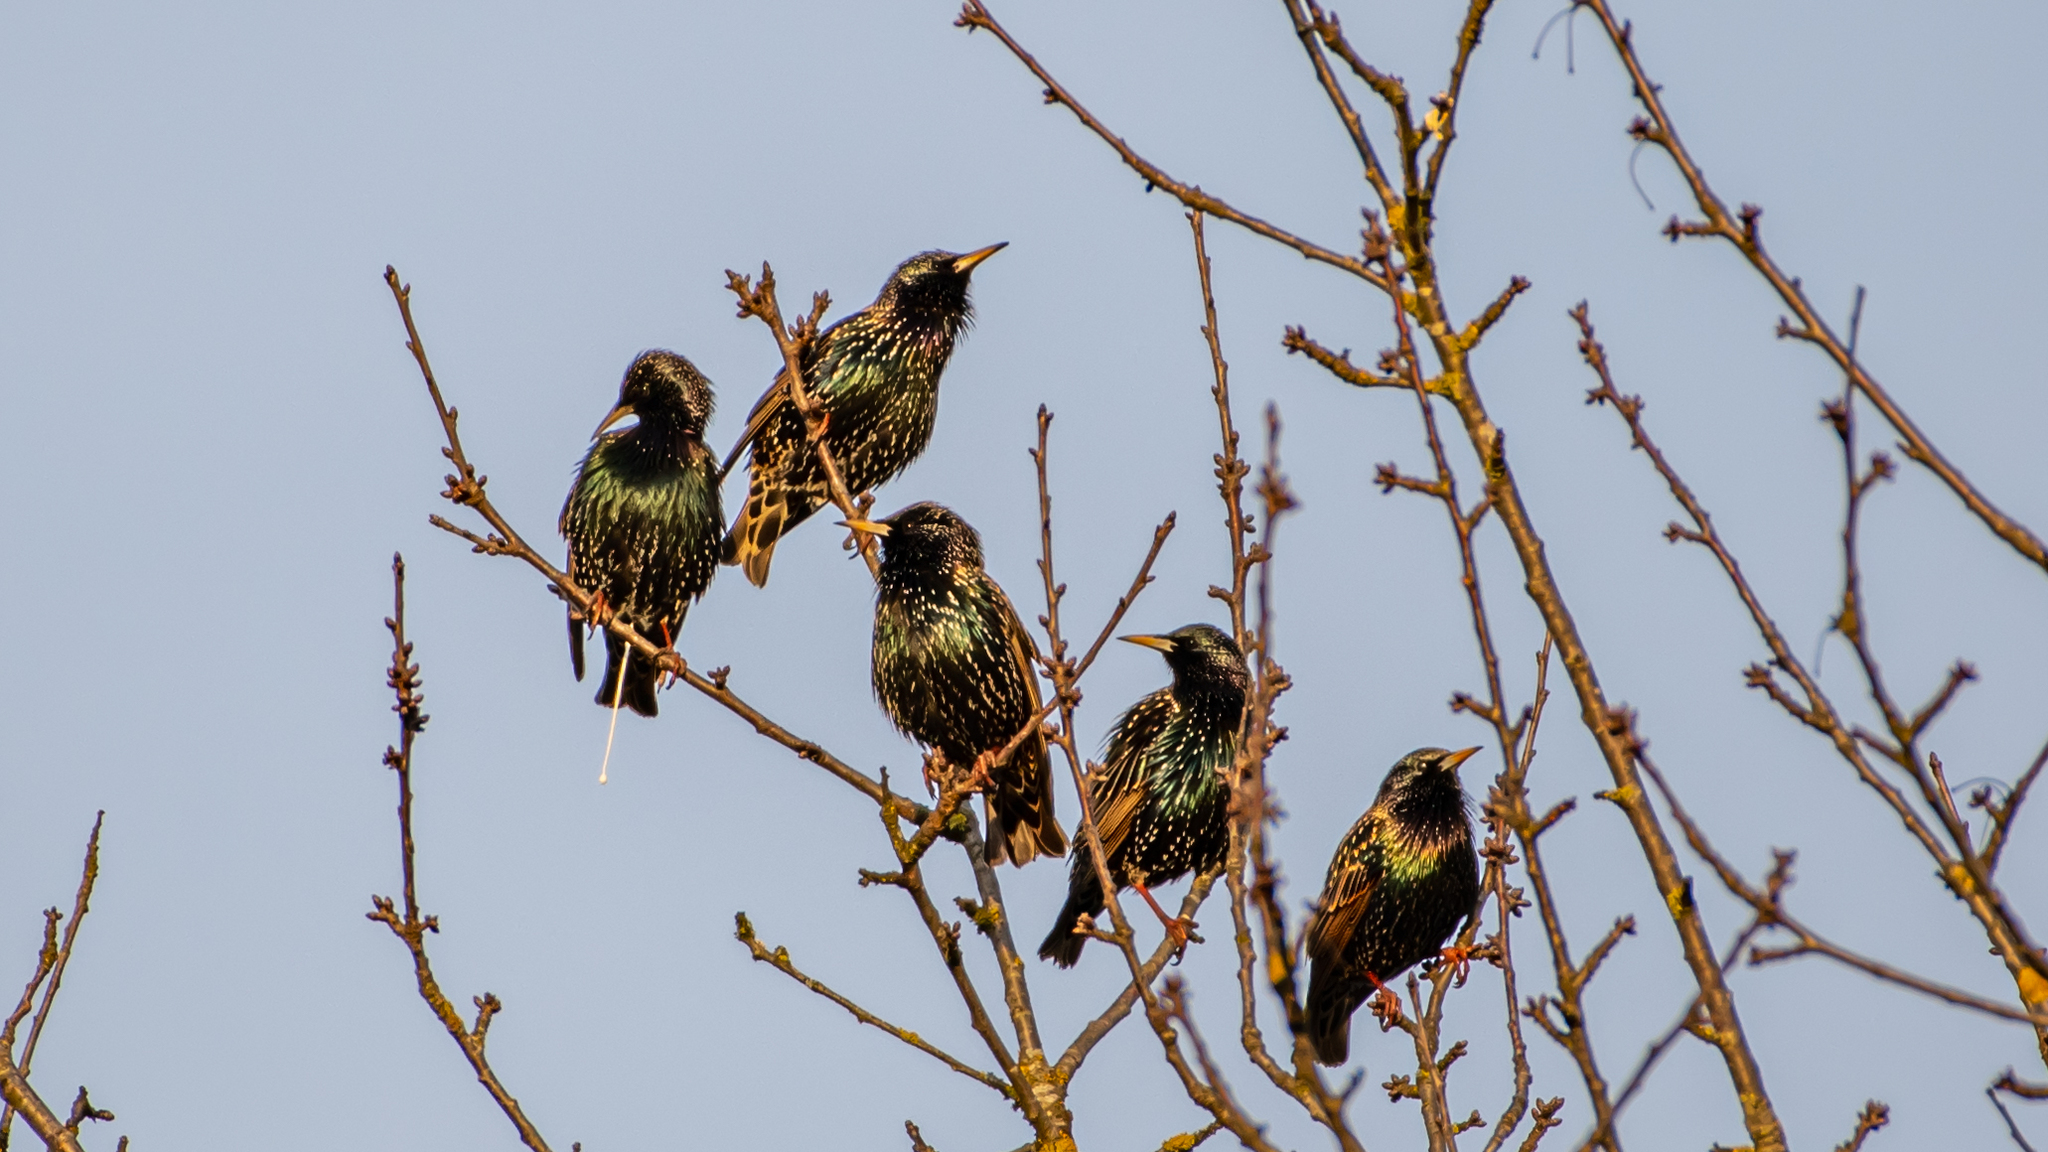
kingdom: Animalia
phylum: Chordata
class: Aves
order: Passeriformes
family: Sturnidae
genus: Sturnus
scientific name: Sturnus vulgaris
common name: Common starling
